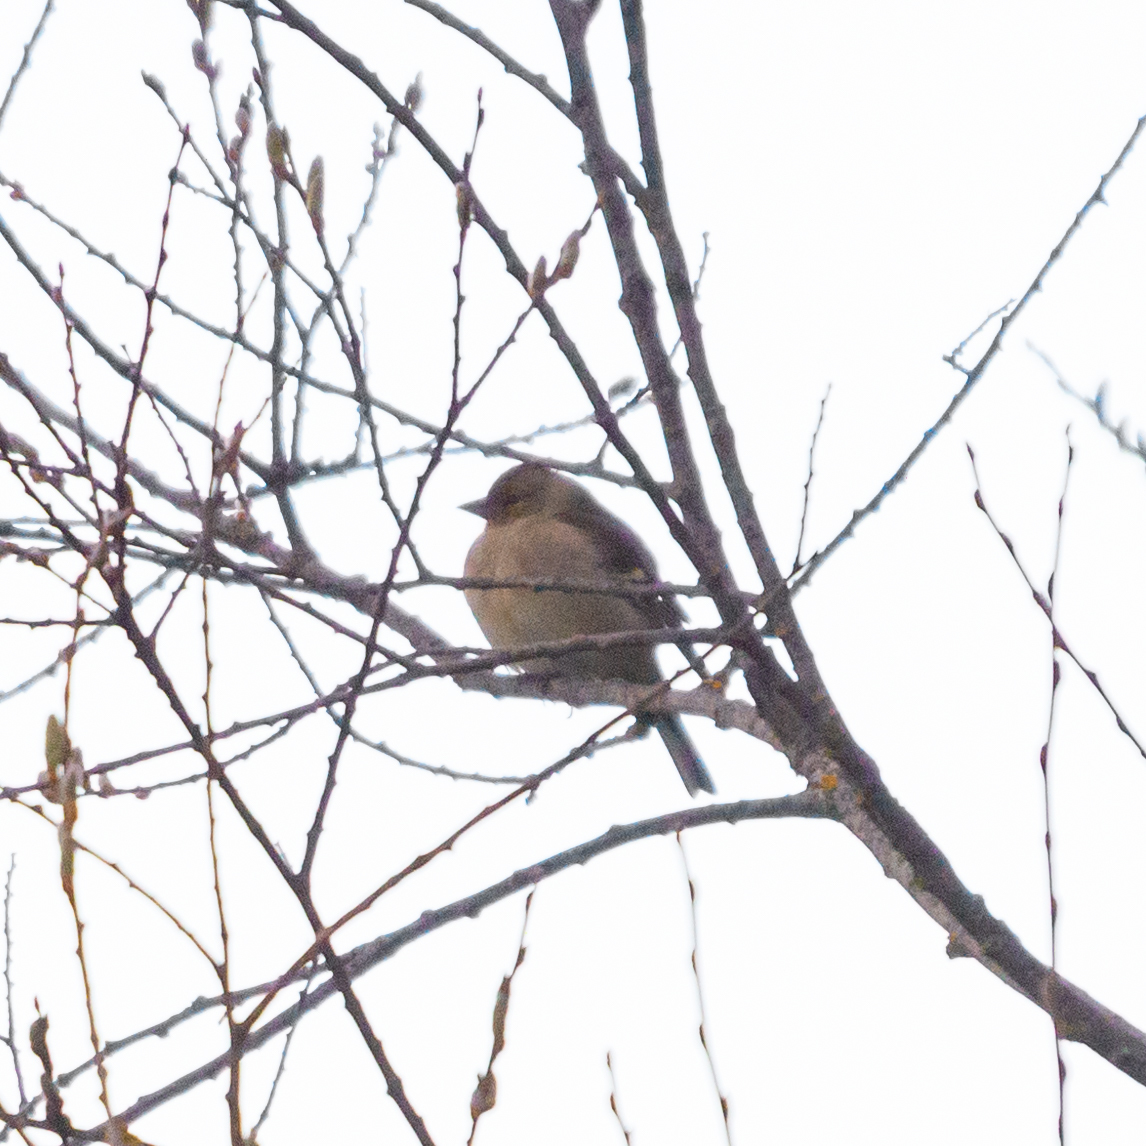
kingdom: Animalia
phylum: Chordata
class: Aves
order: Passeriformes
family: Fringillidae
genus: Fringilla
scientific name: Fringilla coelebs
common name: Common chaffinch
